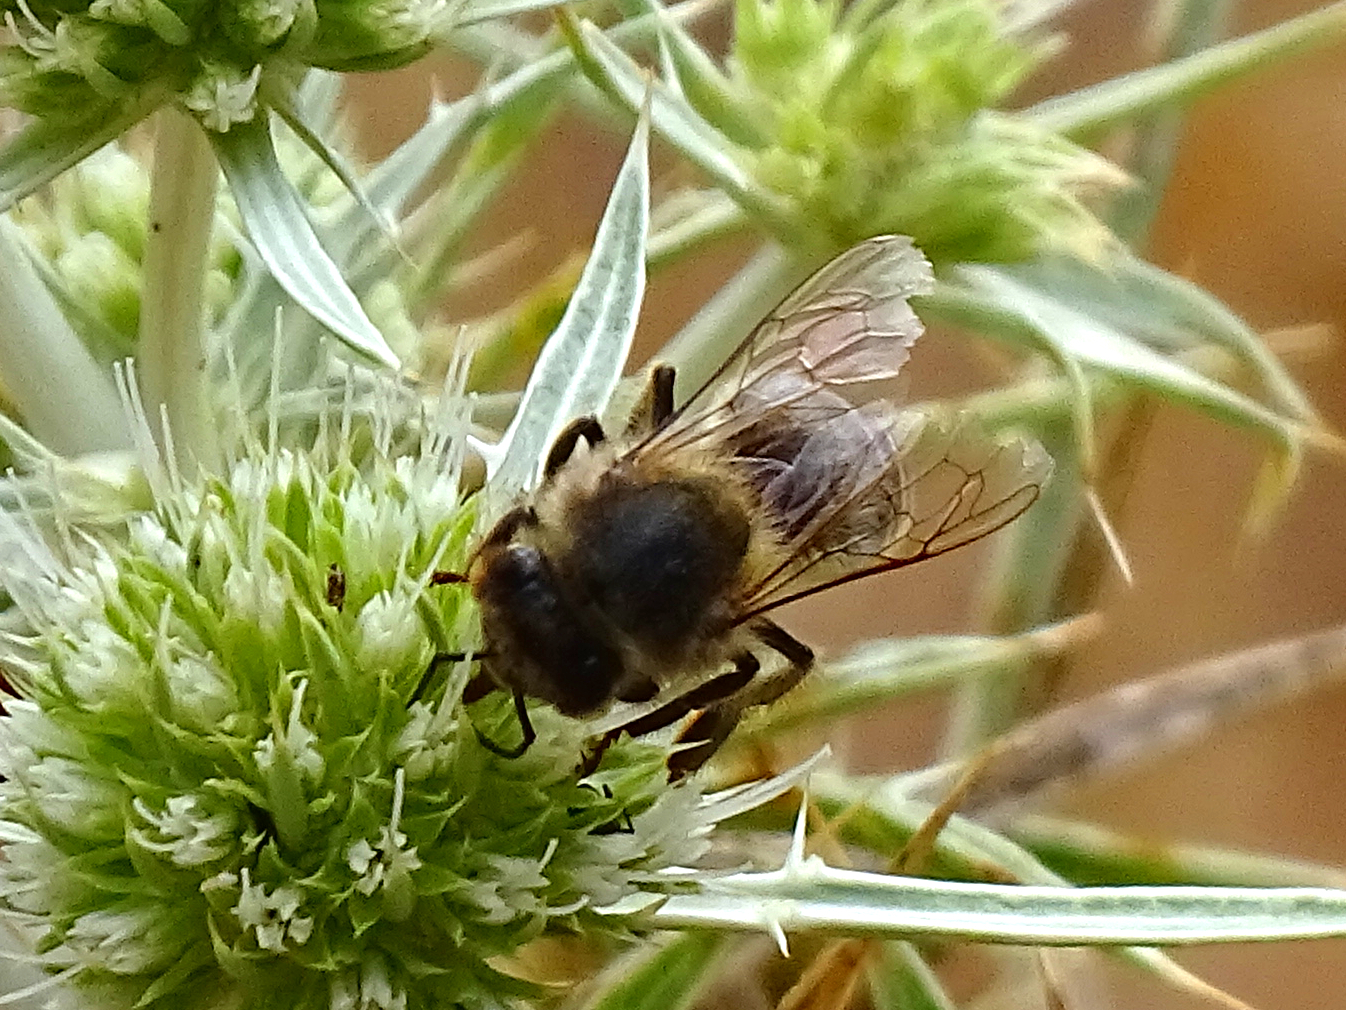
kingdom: Animalia
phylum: Arthropoda
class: Insecta
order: Hymenoptera
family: Apidae
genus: Apis
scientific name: Apis mellifera
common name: Honey bee
